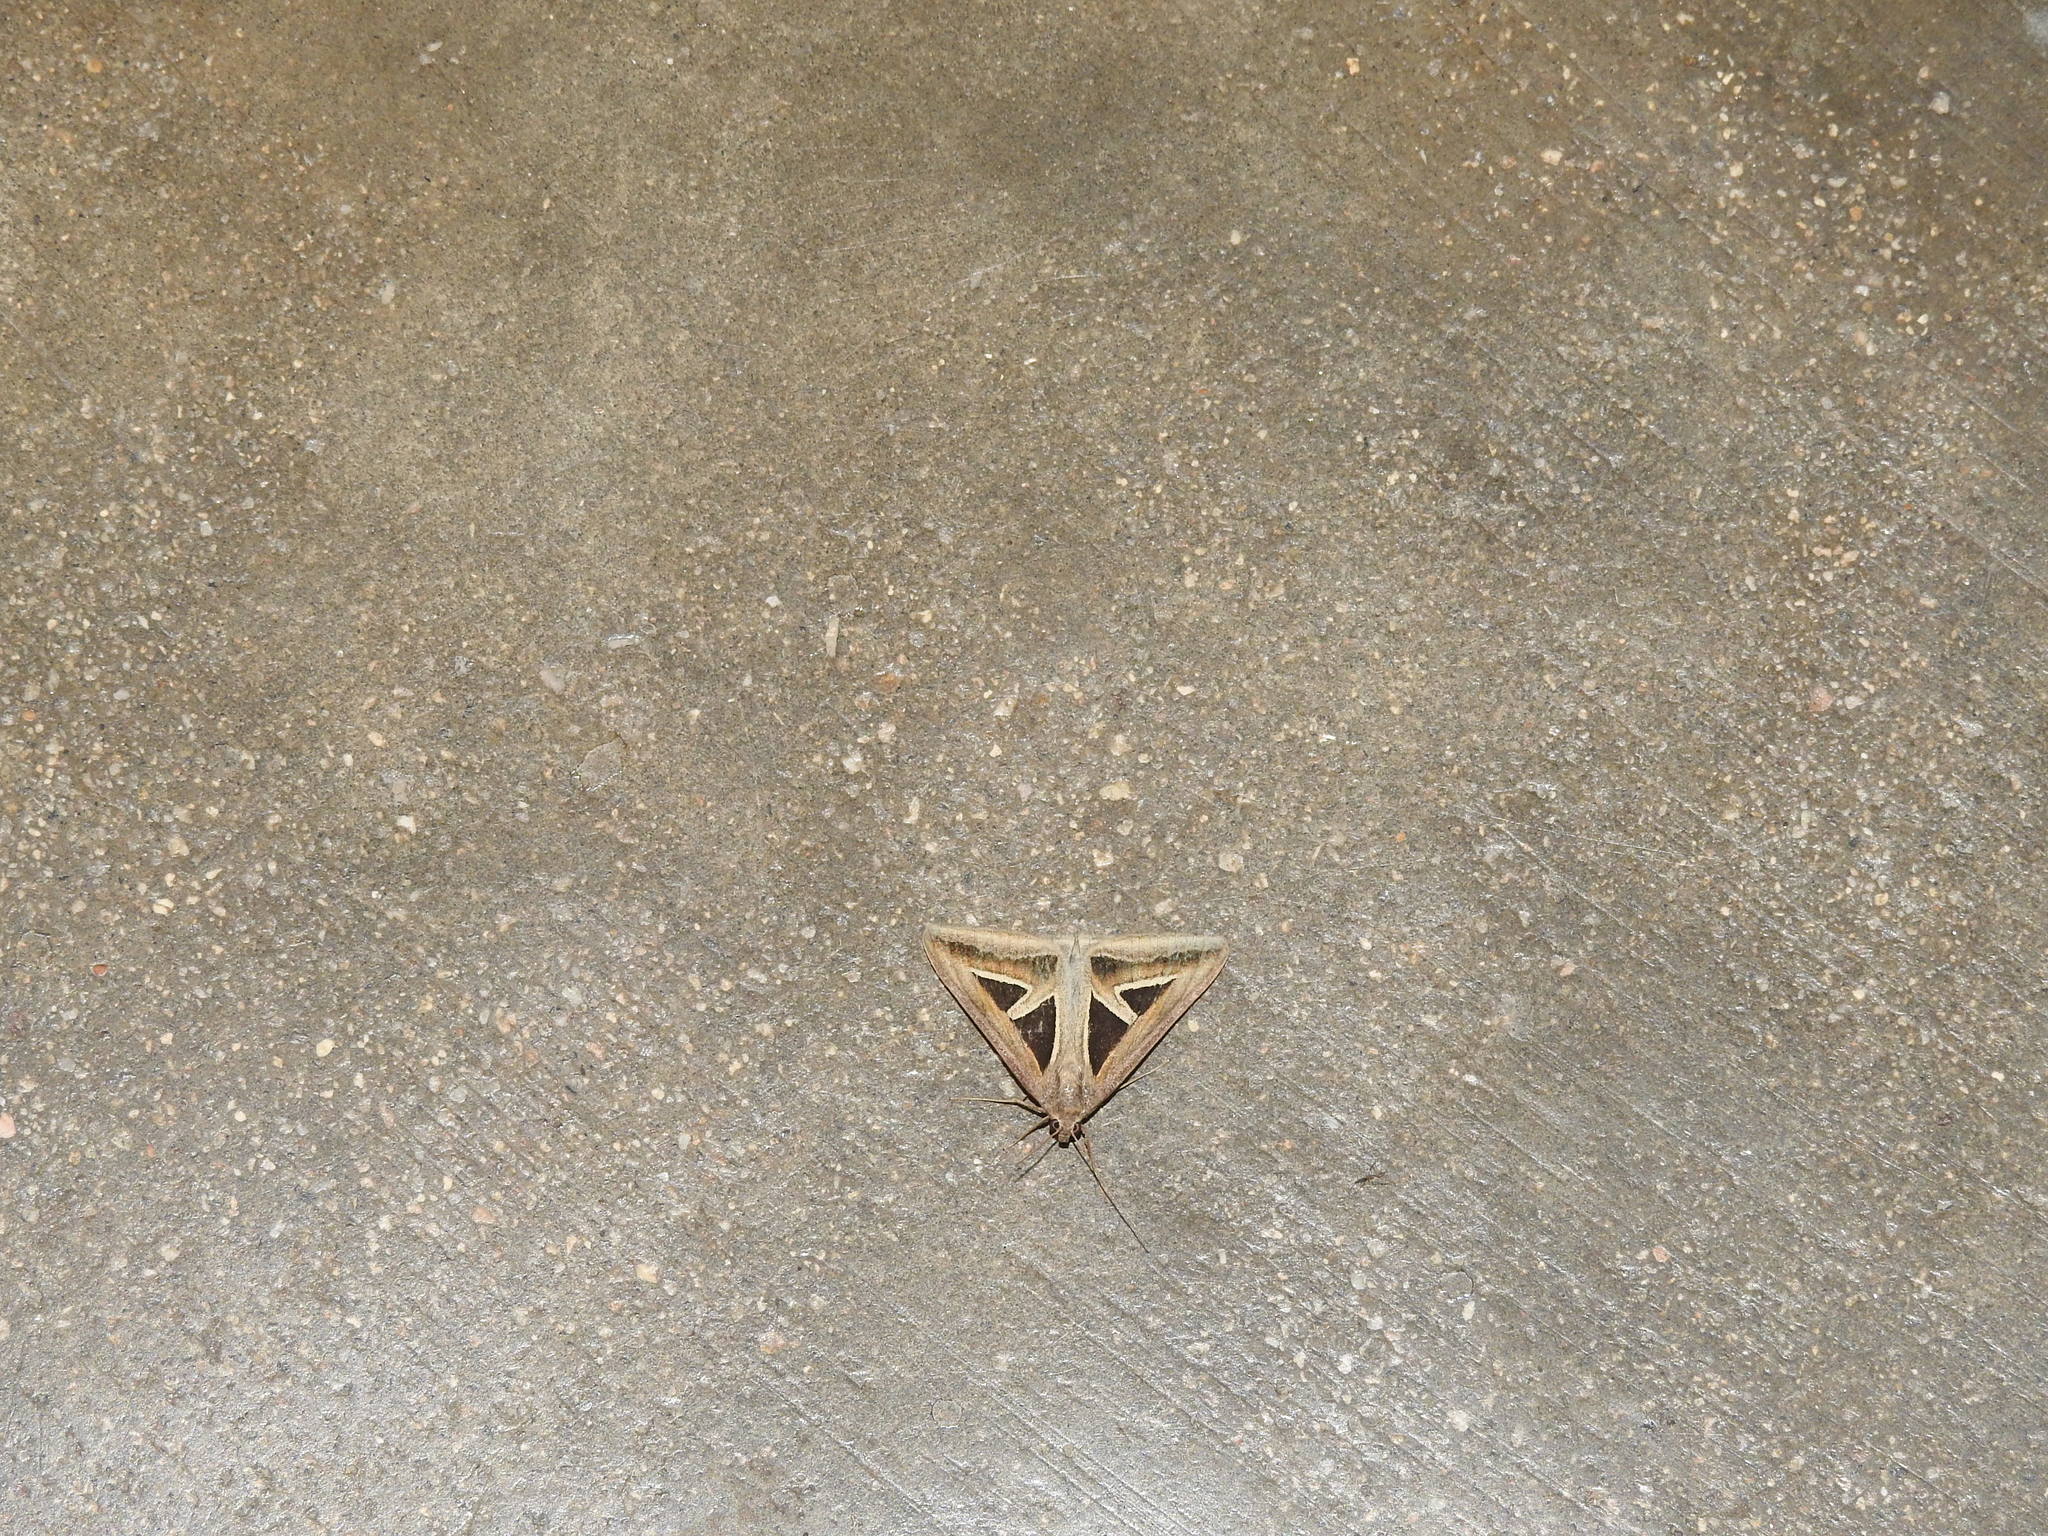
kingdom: Animalia
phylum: Arthropoda
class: Insecta
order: Lepidoptera
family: Erebidae
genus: Trigonodes
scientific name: Trigonodes hyppasia
